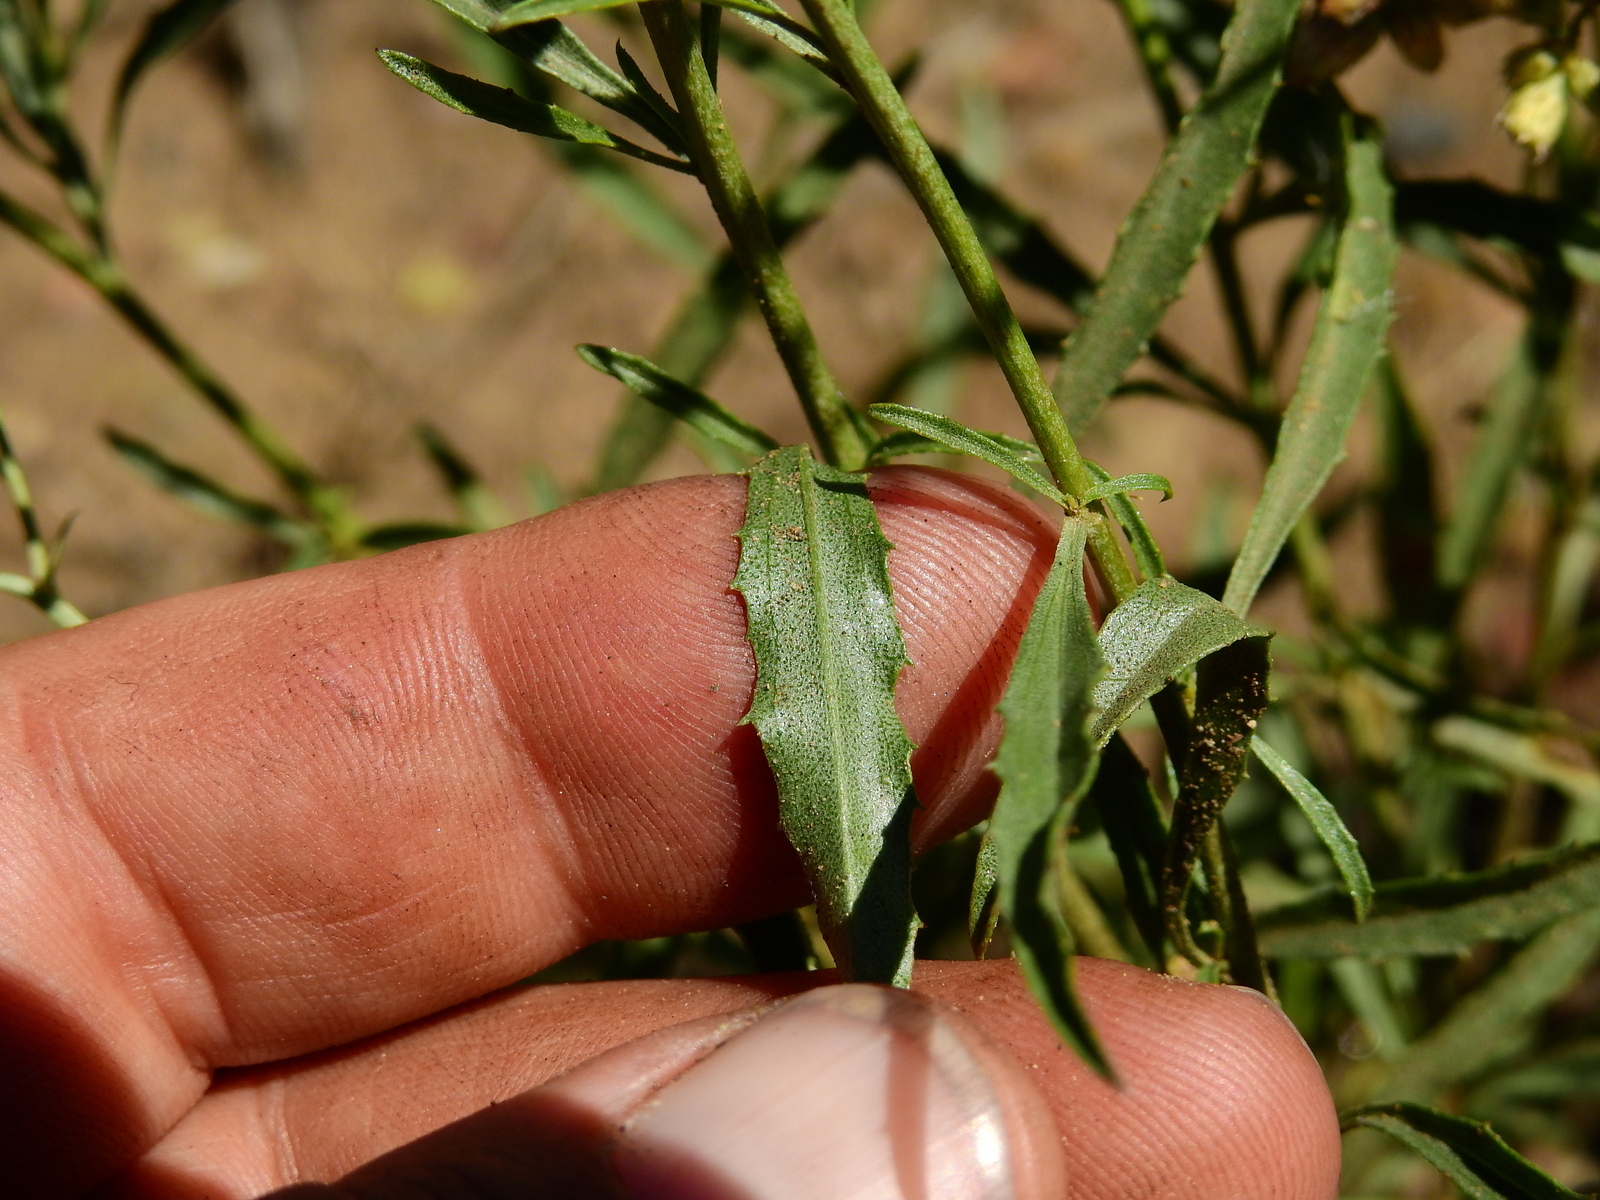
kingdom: Plantae
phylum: Tracheophyta
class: Magnoliopsida
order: Asterales
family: Asteraceae
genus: Baccharis
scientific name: Baccharis glutinosa
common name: Saltmarsh baccharis
